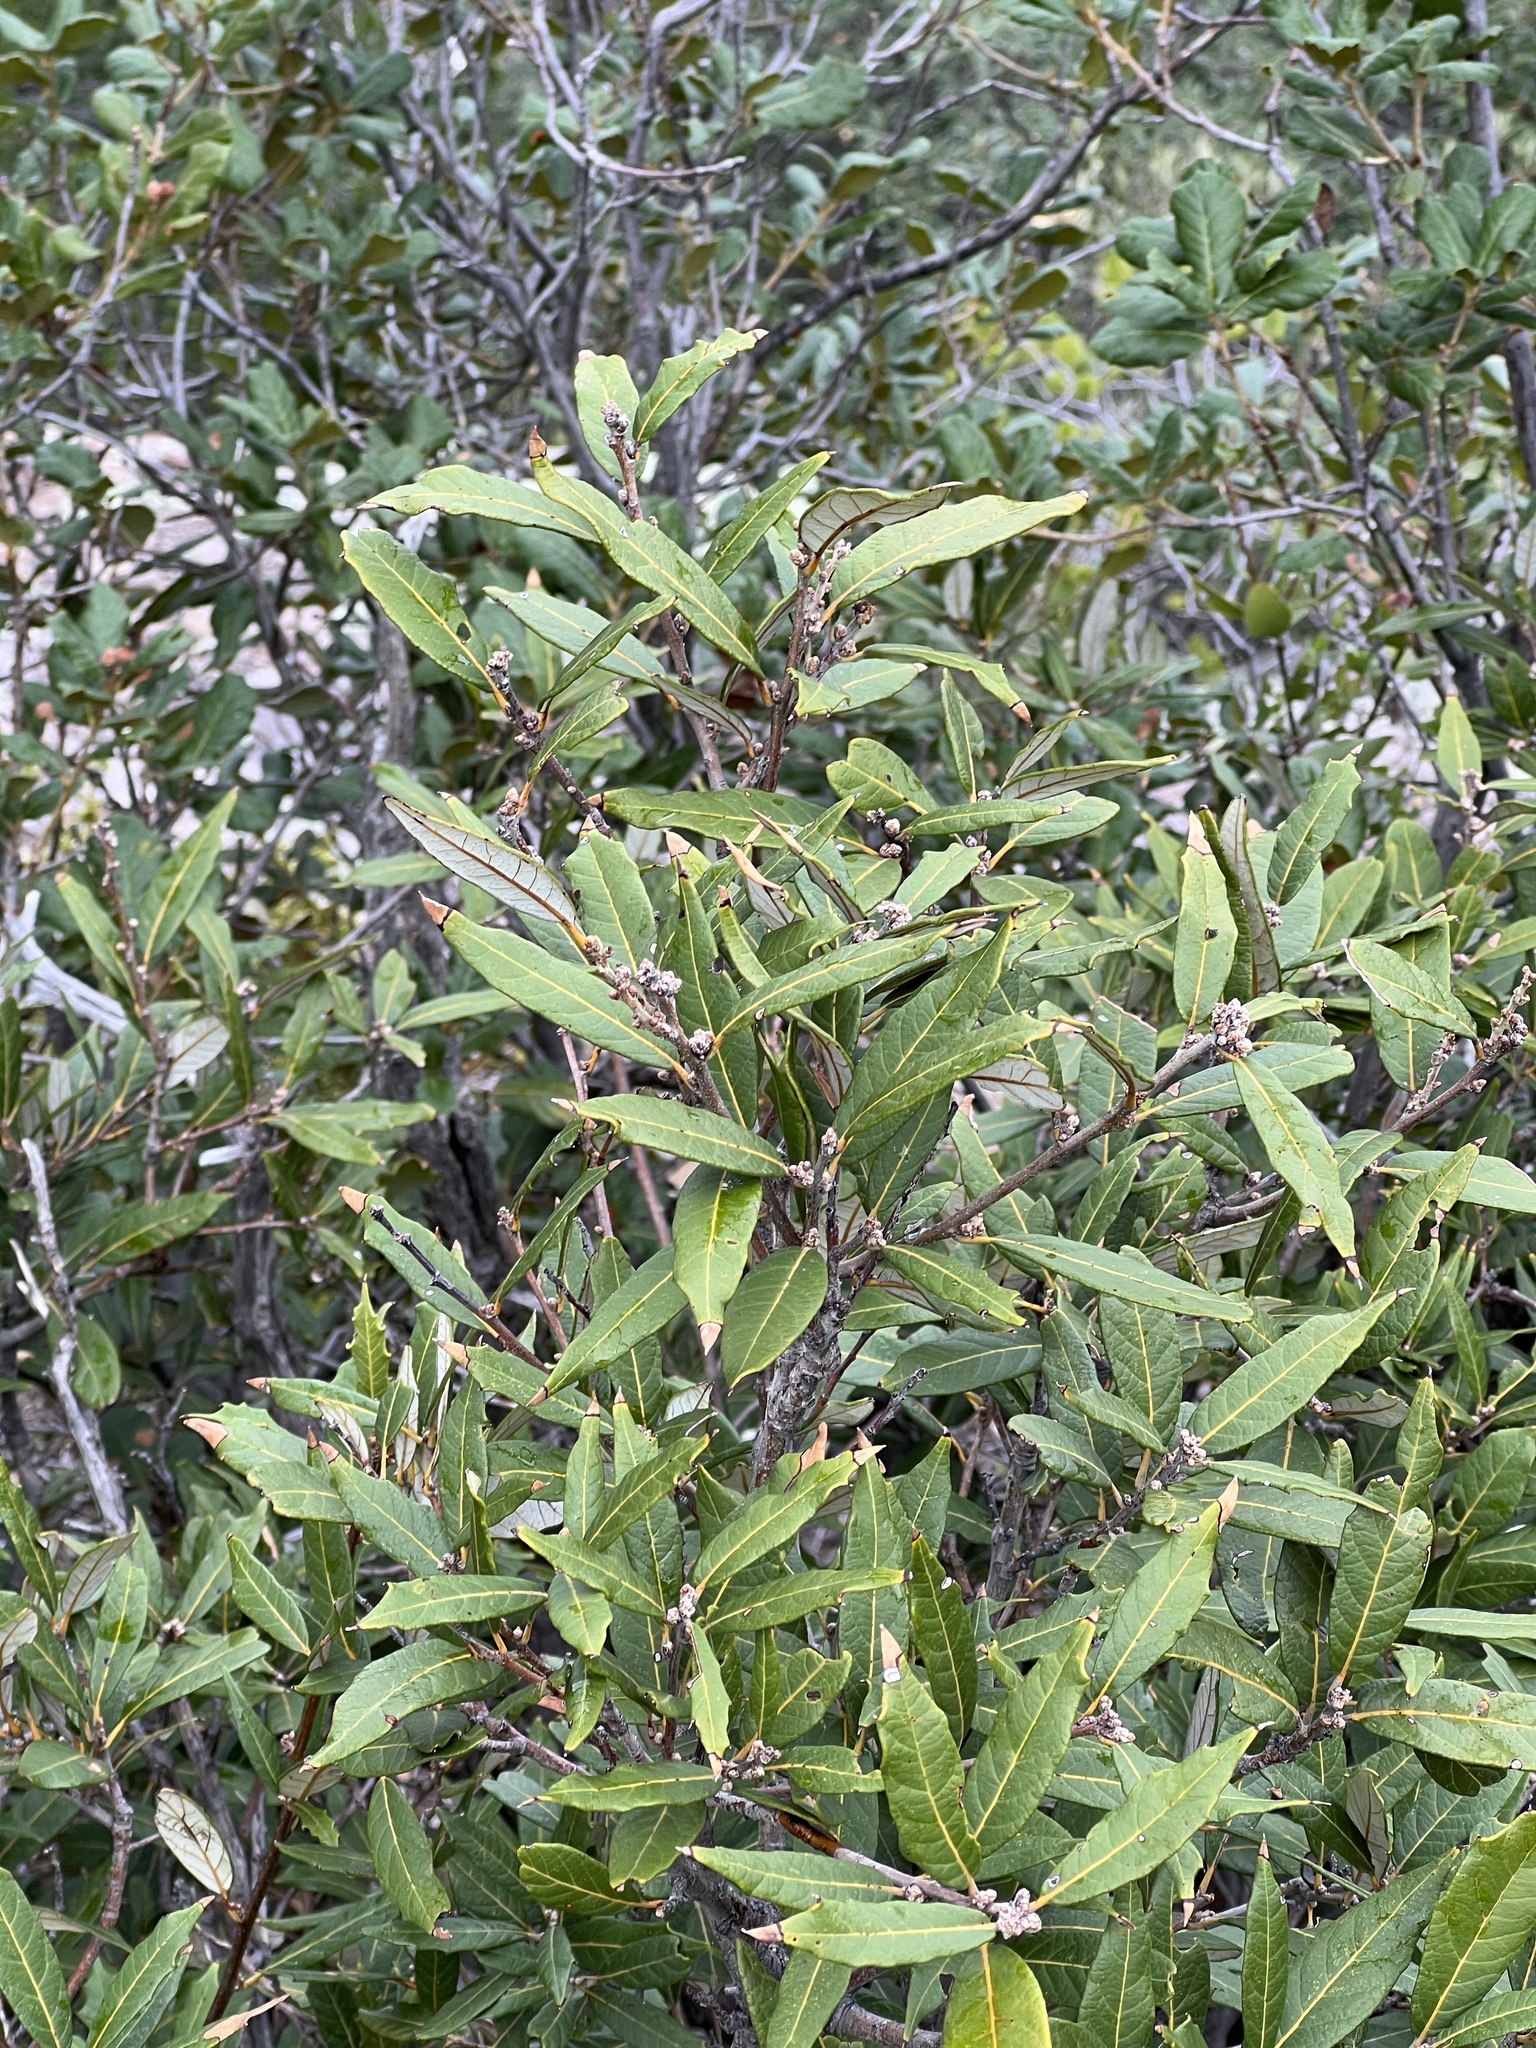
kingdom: Plantae
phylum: Tracheophyta
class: Magnoliopsida
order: Fagales
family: Fagaceae
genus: Quercus
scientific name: Quercus hypoleucoides
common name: Silverleaf oak
